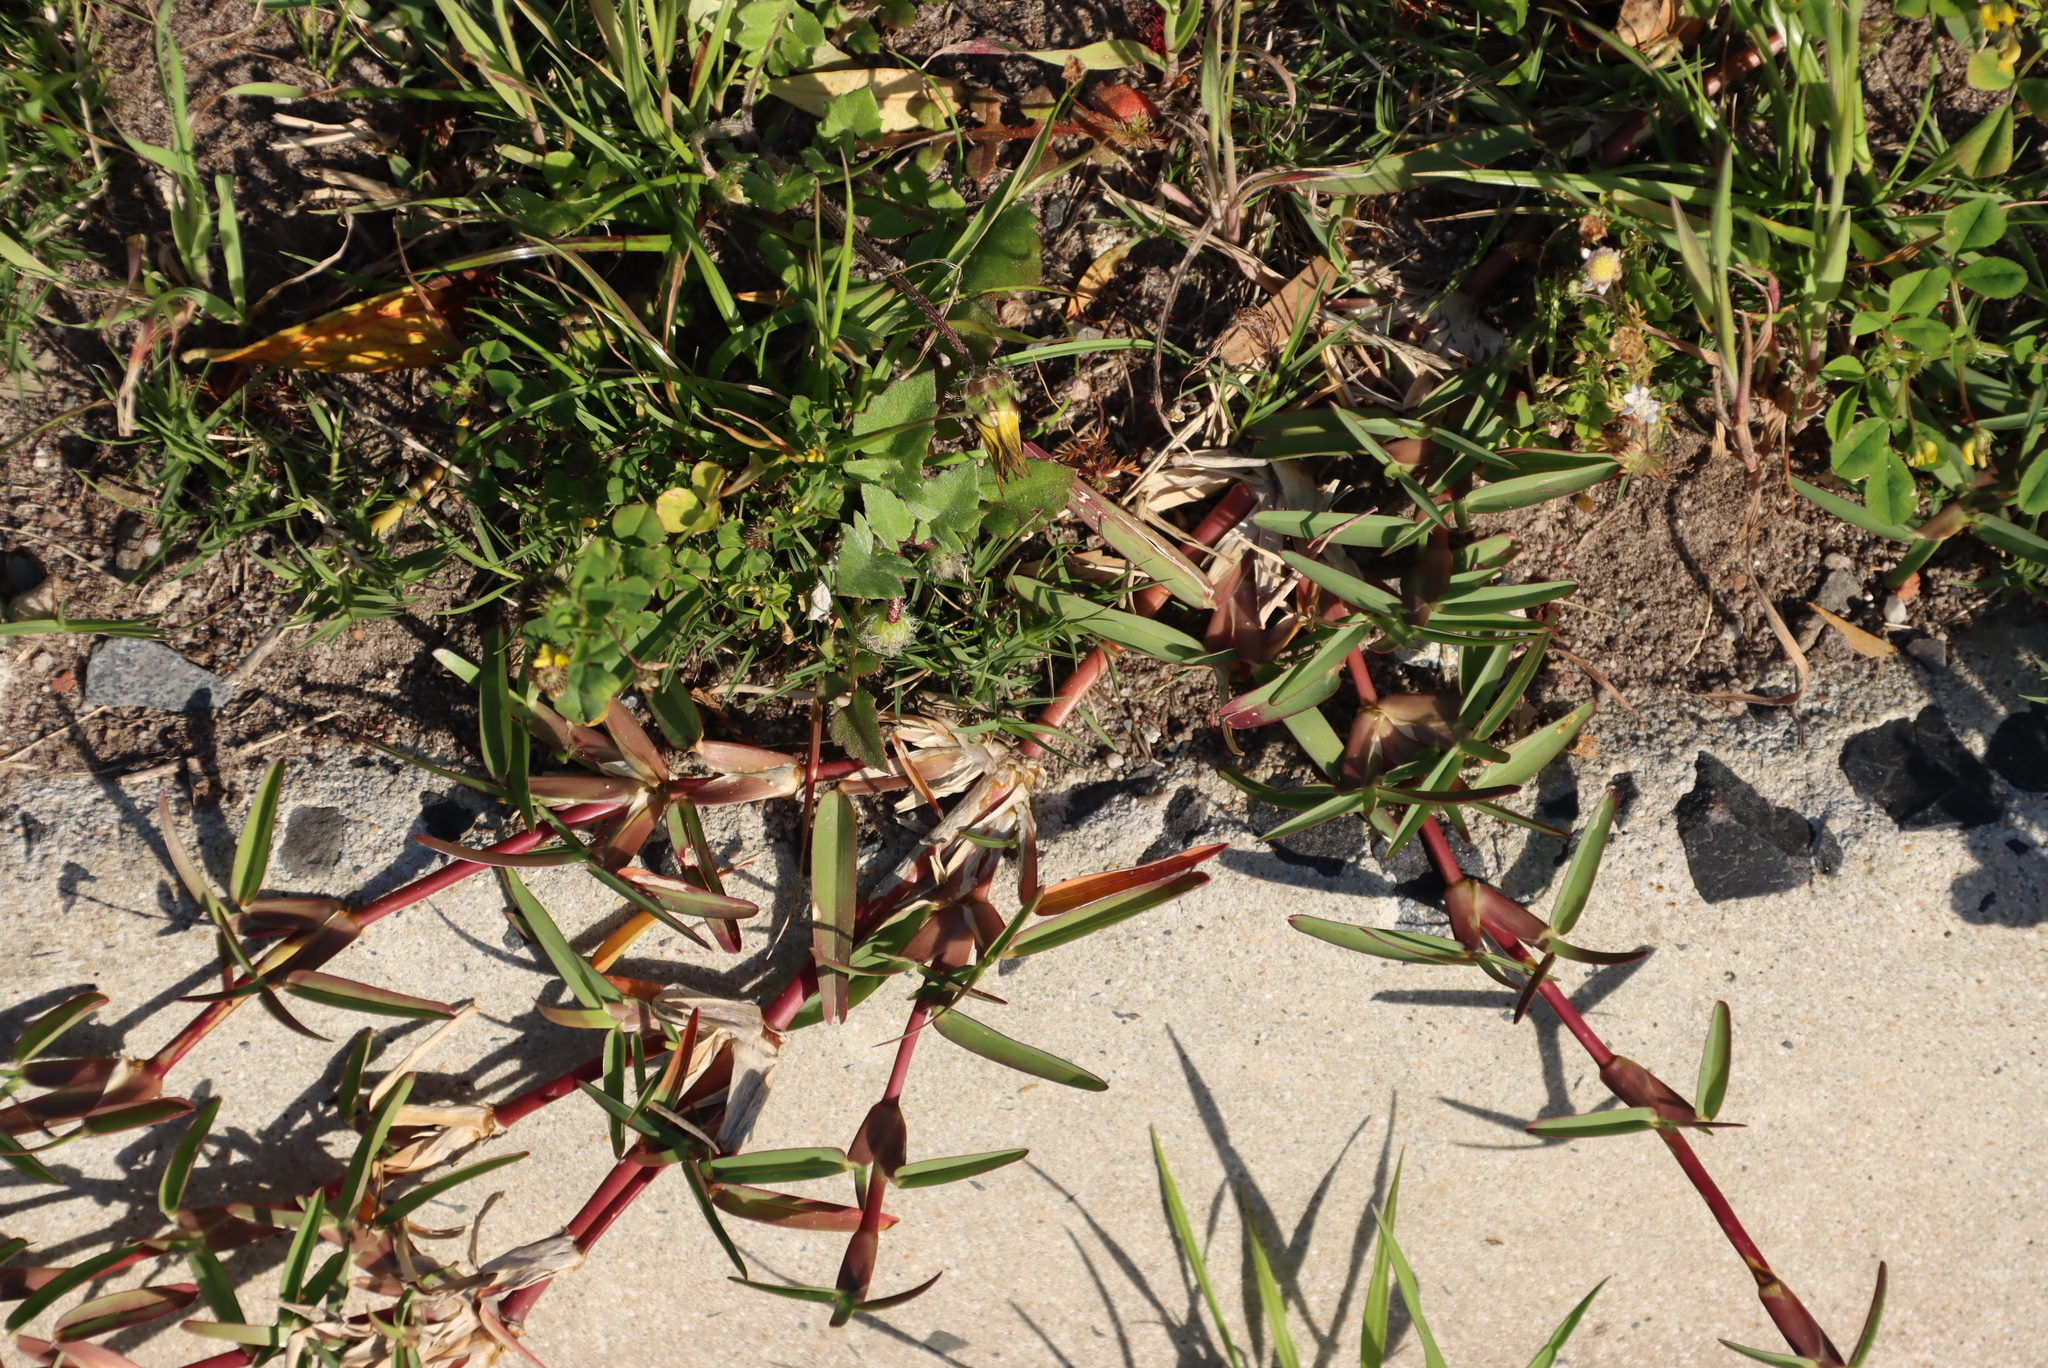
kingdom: Plantae
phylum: Tracheophyta
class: Liliopsida
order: Poales
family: Poaceae
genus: Stenotaphrum
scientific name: Stenotaphrum secundatum
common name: St. augustine grass
